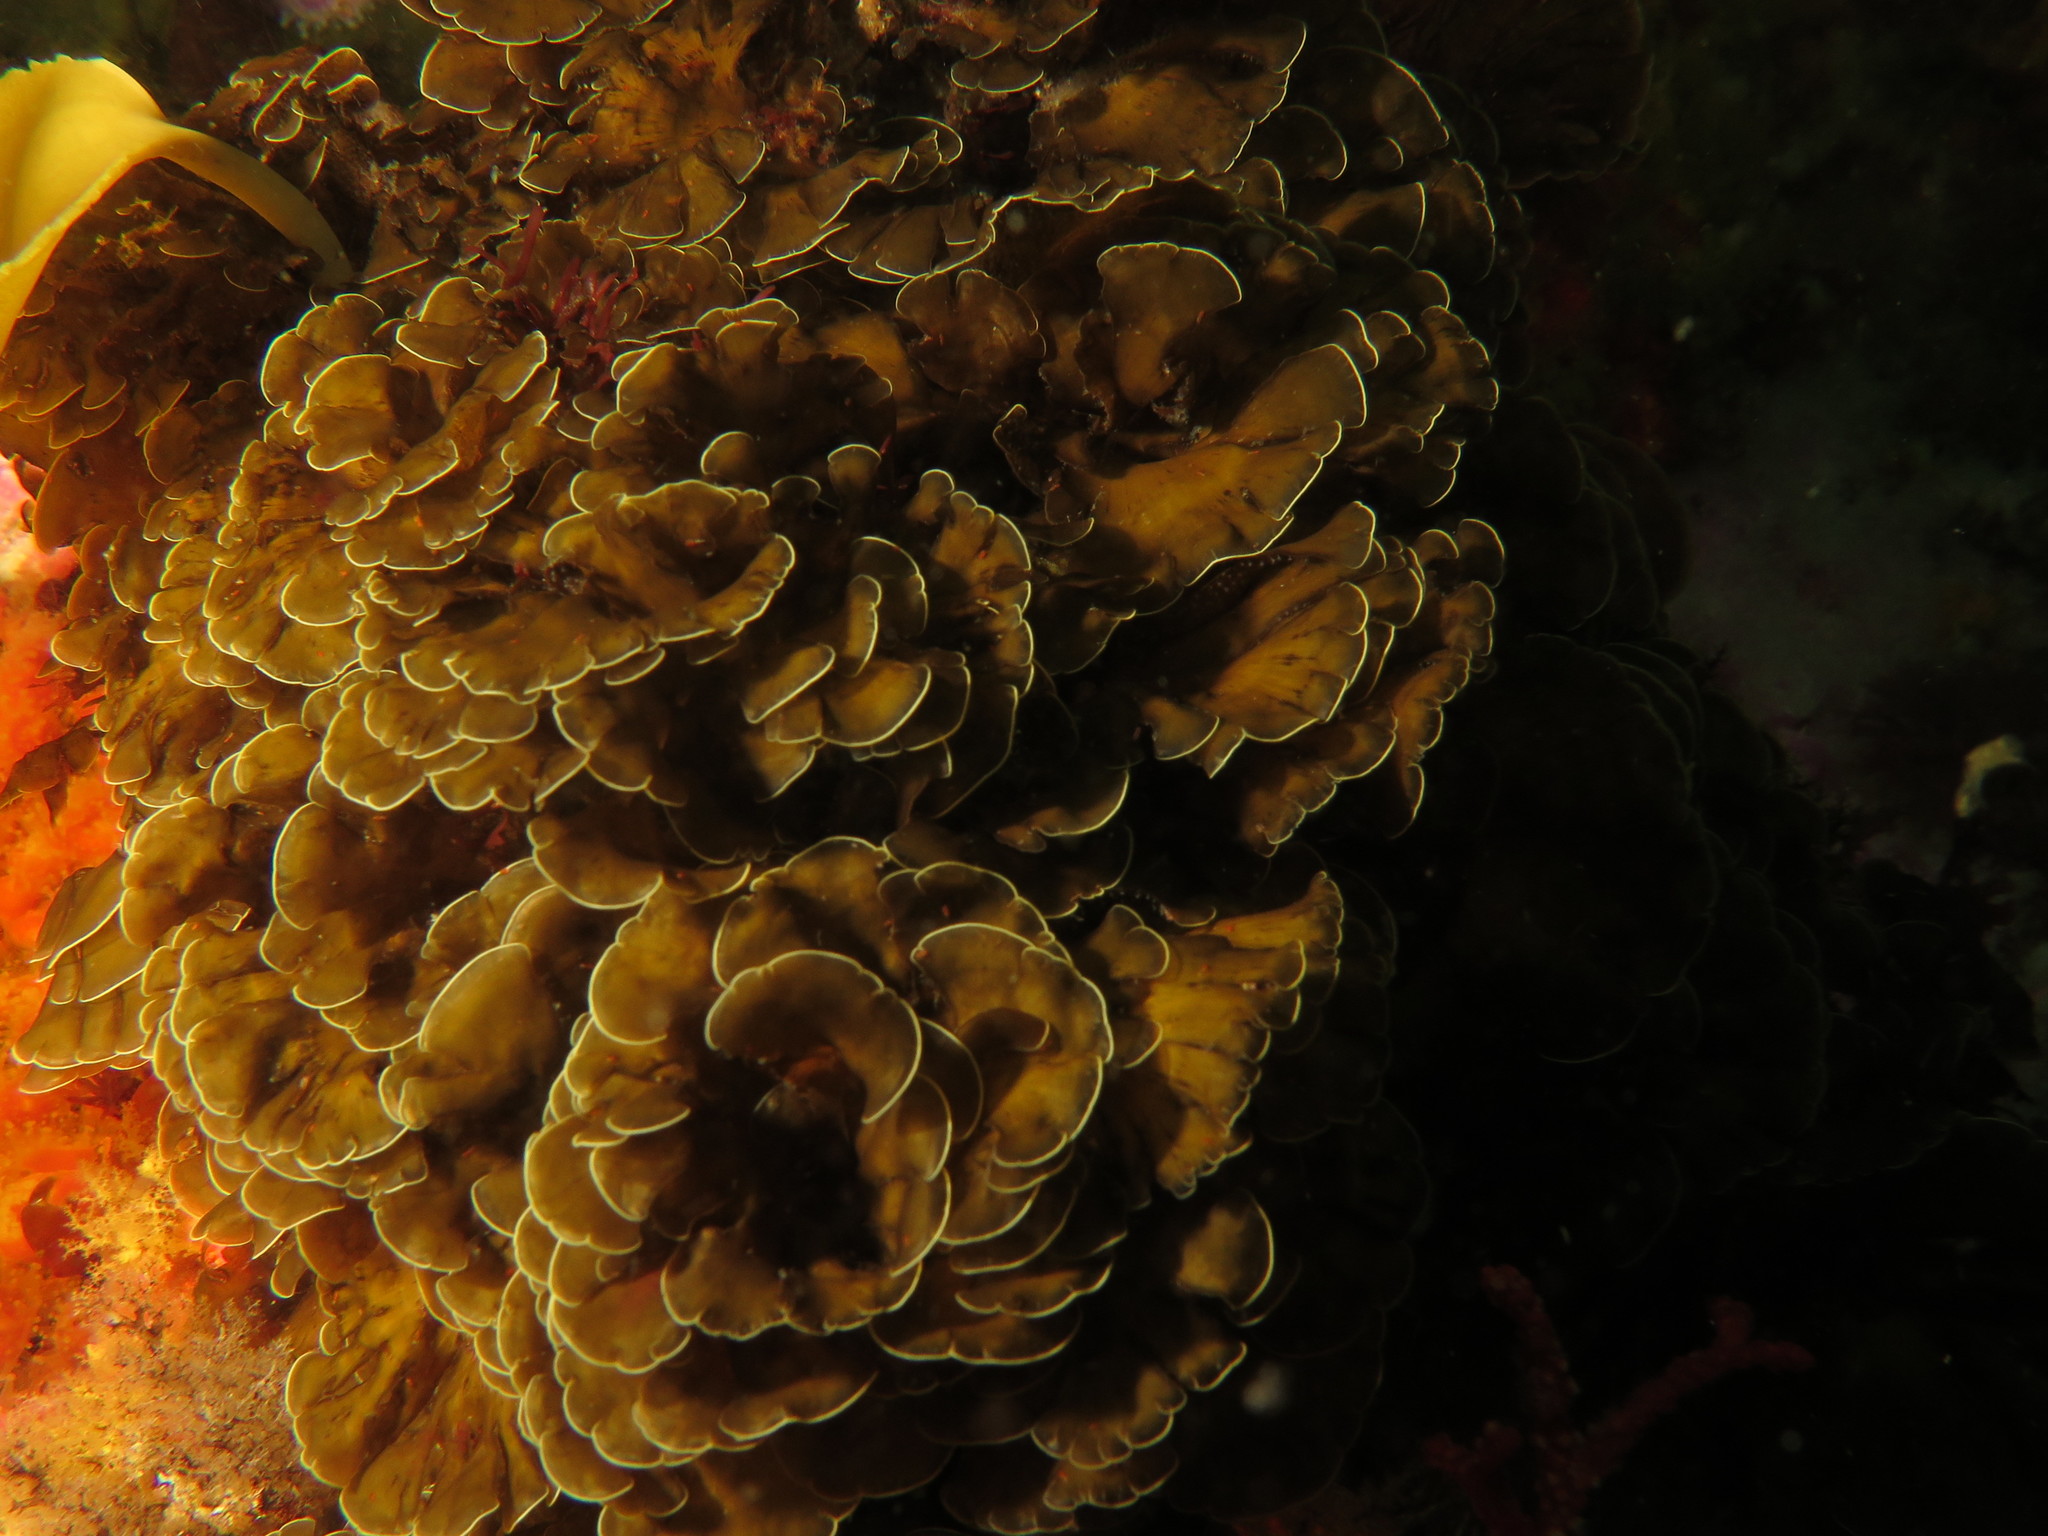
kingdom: Chromista
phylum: Ochrophyta
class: Phaeophyceae
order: Dictyotales
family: Dictyotaceae
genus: Exallosorus
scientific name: Exallosorus
